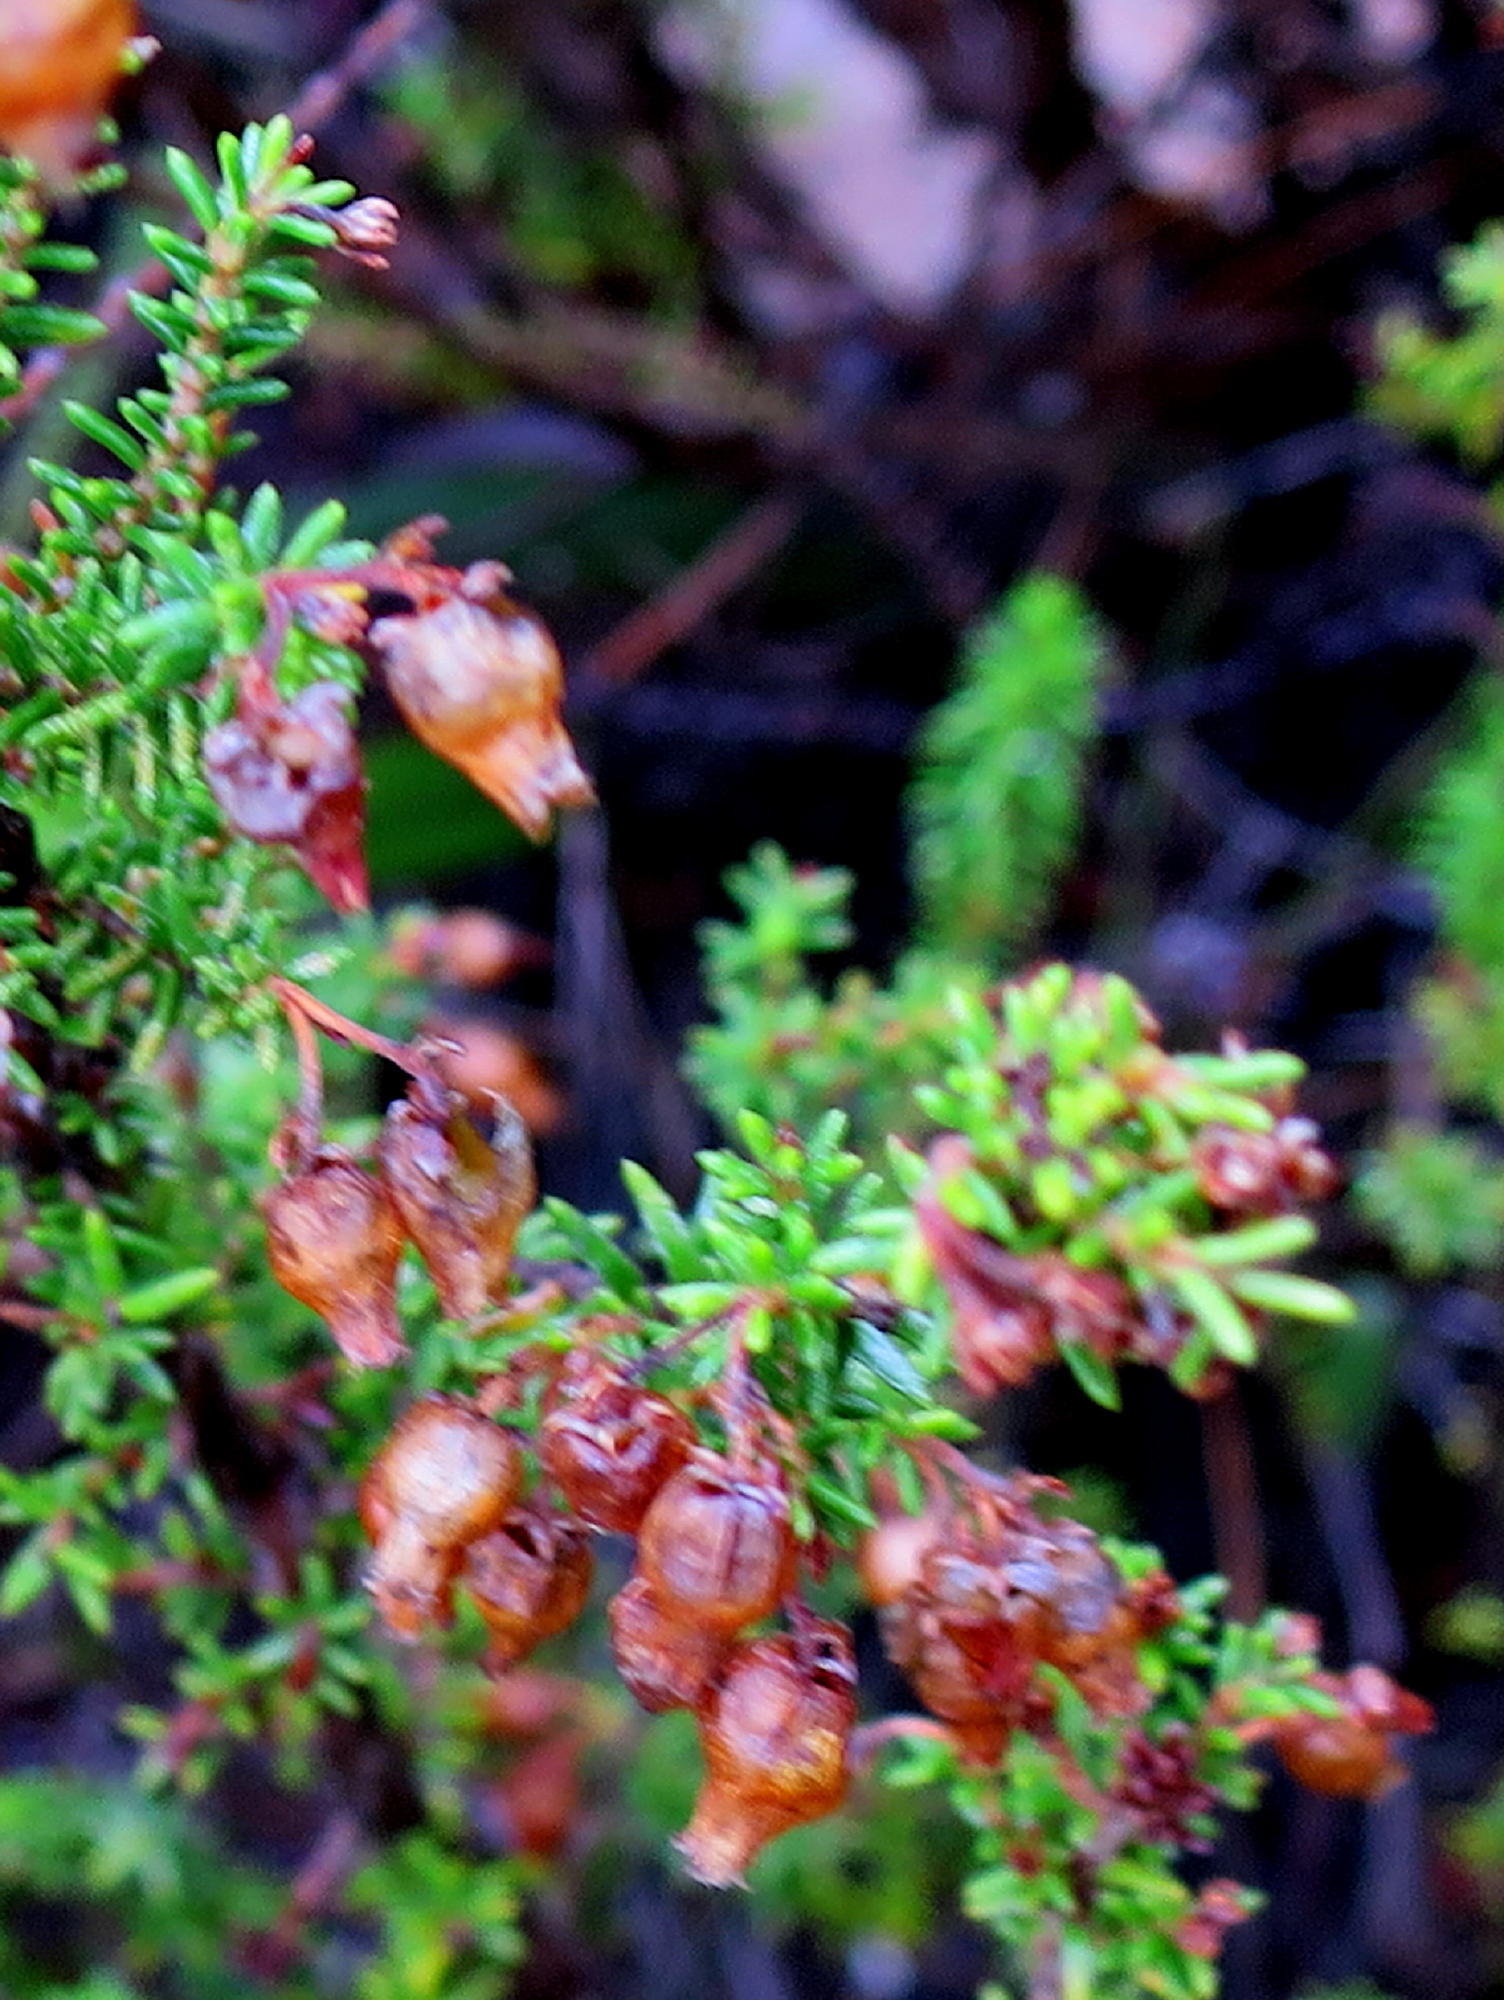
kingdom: Plantae
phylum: Tracheophyta
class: Magnoliopsida
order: Ericales
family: Ericaceae
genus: Erica
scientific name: Erica glomiflora
